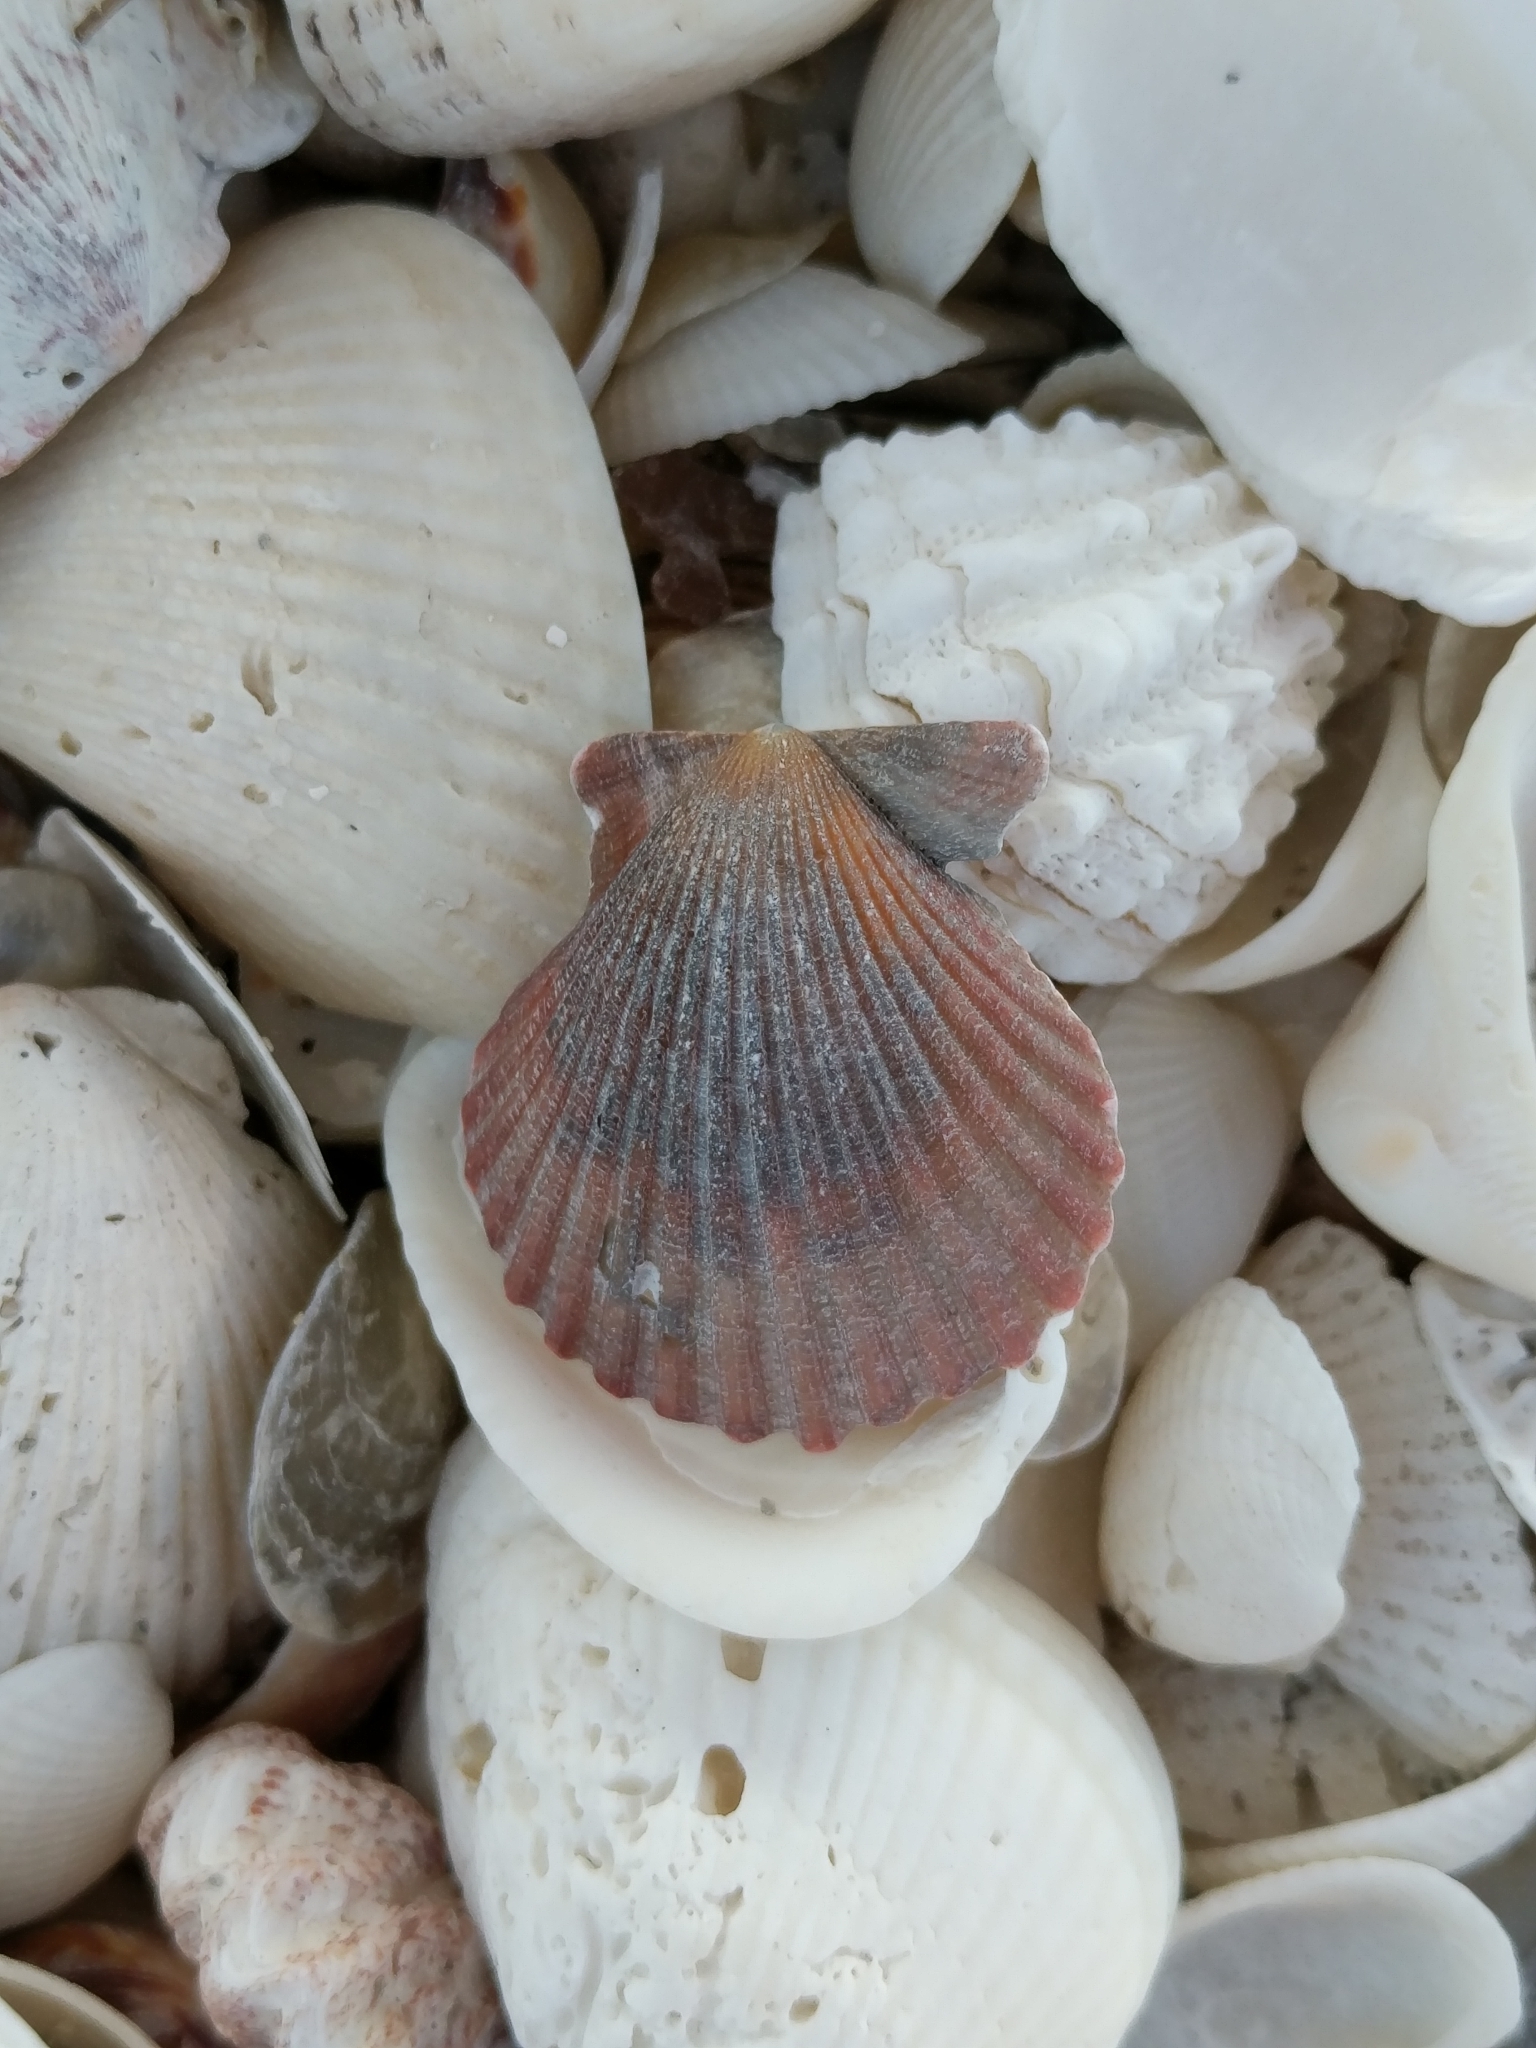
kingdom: Animalia
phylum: Mollusca
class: Bivalvia
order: Pectinida
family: Pectinidae
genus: Lindapecten
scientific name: Lindapecten muscosus
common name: Rough scallop
